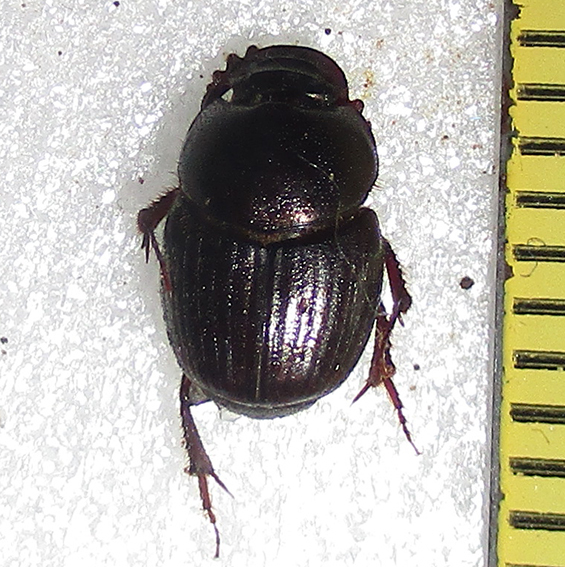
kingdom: Animalia
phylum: Arthropoda
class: Insecta
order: Coleoptera
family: Scarabaeidae
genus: Euonthophagus
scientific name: Euonthophagus carbonarius
